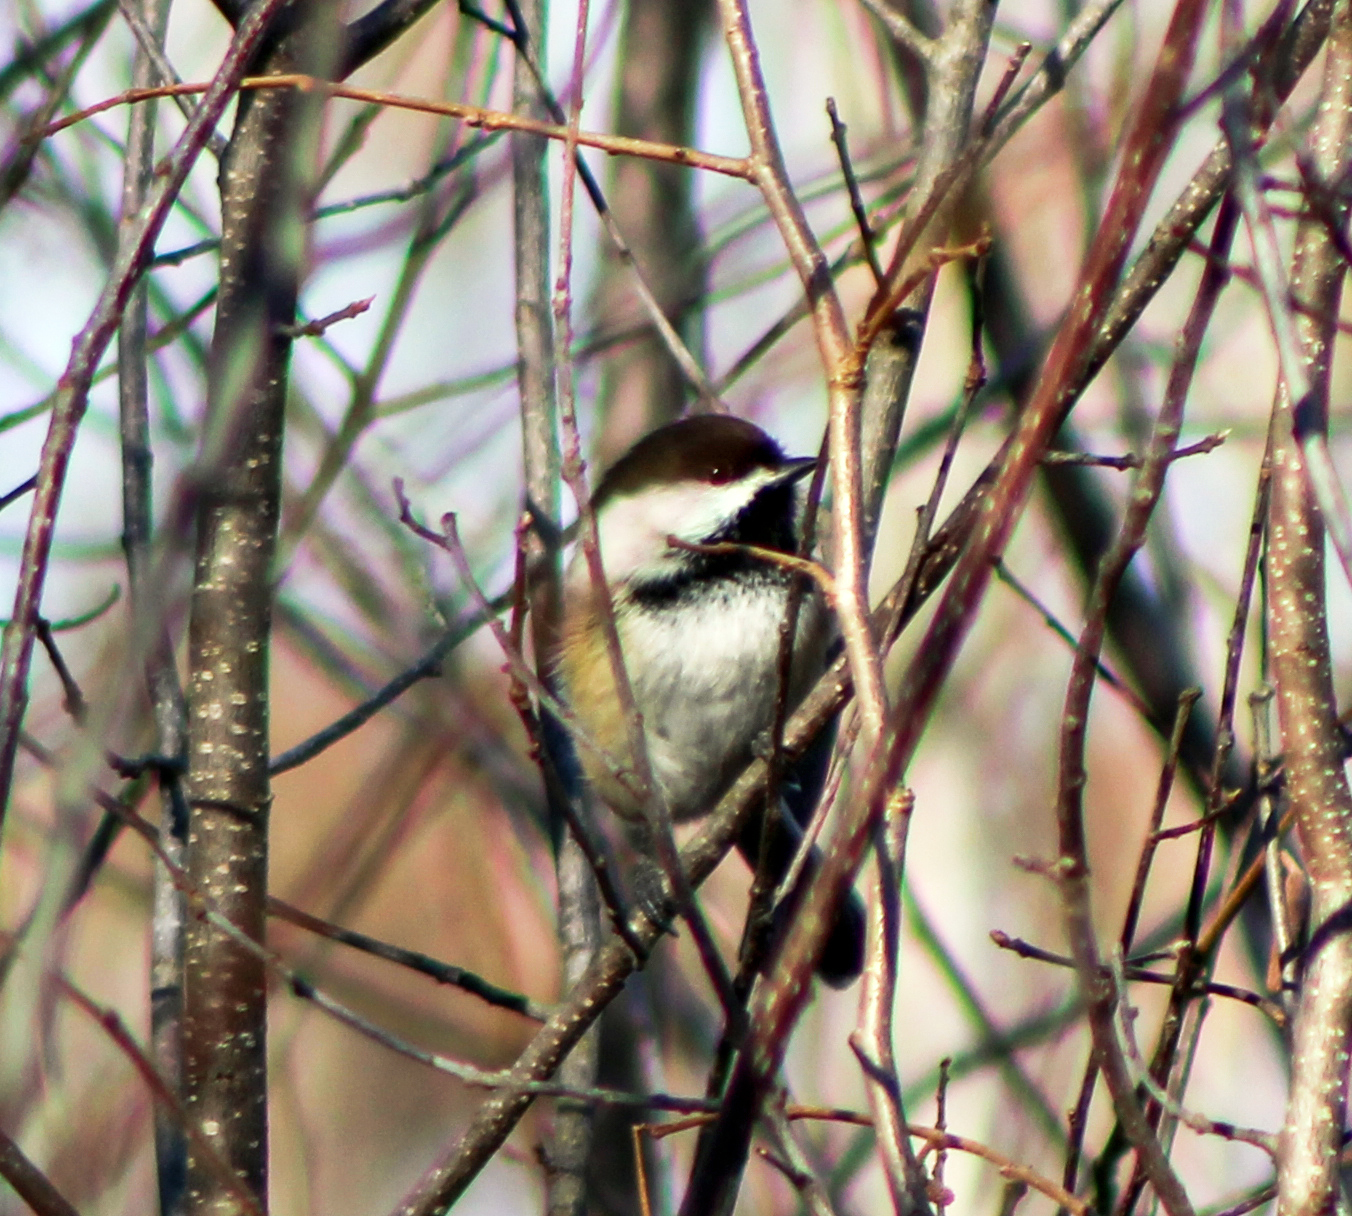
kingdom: Animalia
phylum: Chordata
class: Aves
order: Passeriformes
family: Paridae
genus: Poecile
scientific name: Poecile atricapillus
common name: Black-capped chickadee
